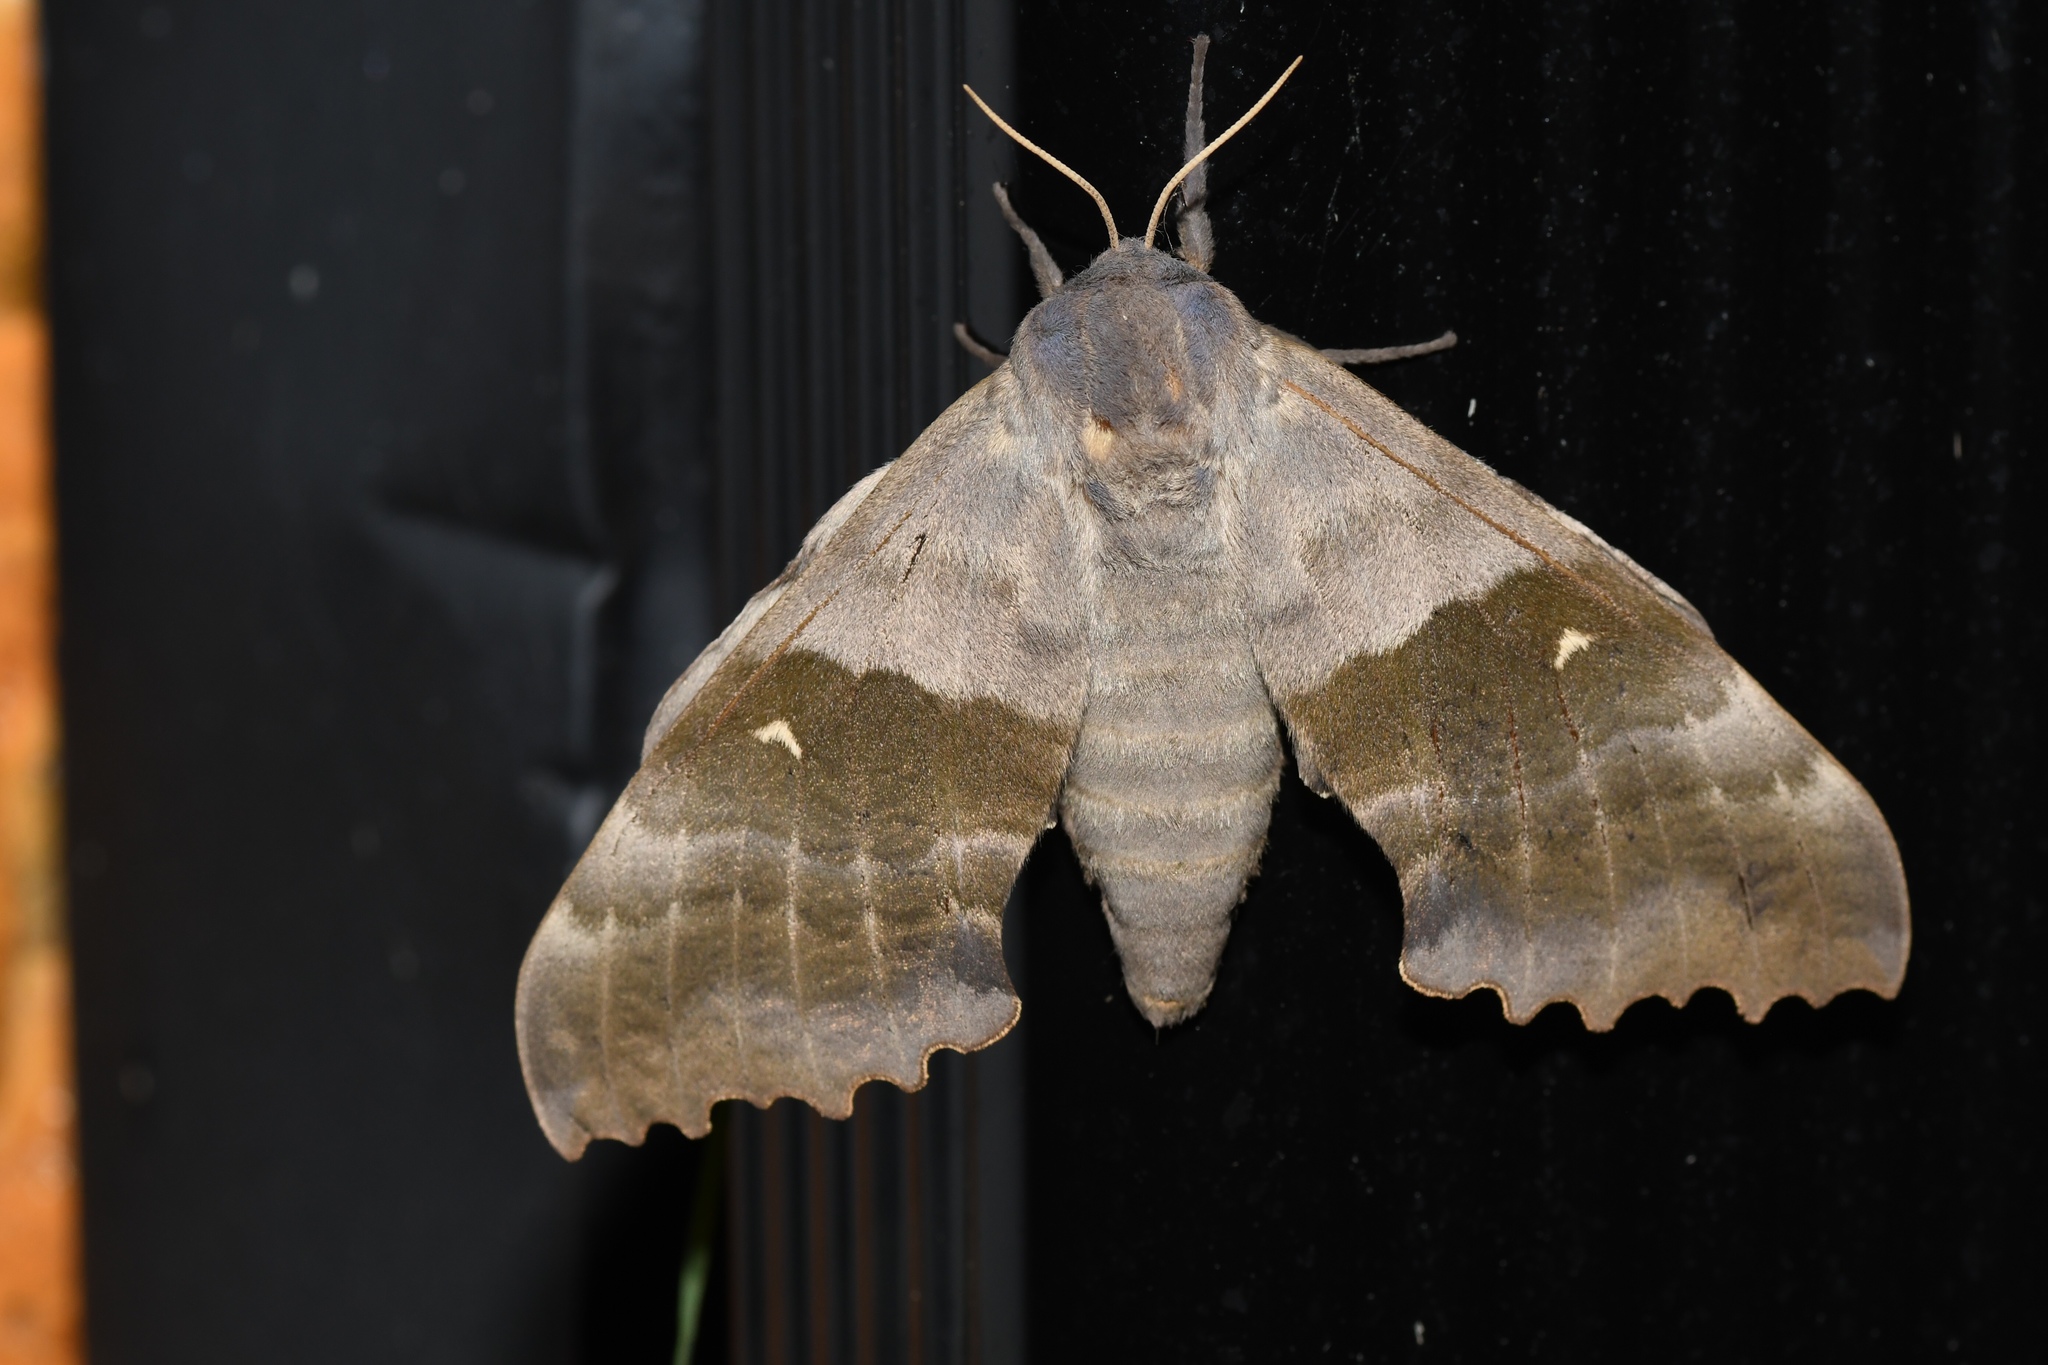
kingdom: Animalia
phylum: Arthropoda
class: Insecta
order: Lepidoptera
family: Sphingidae
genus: Pachysphinx
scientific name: Pachysphinx modesta
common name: Big poplar sphinx
